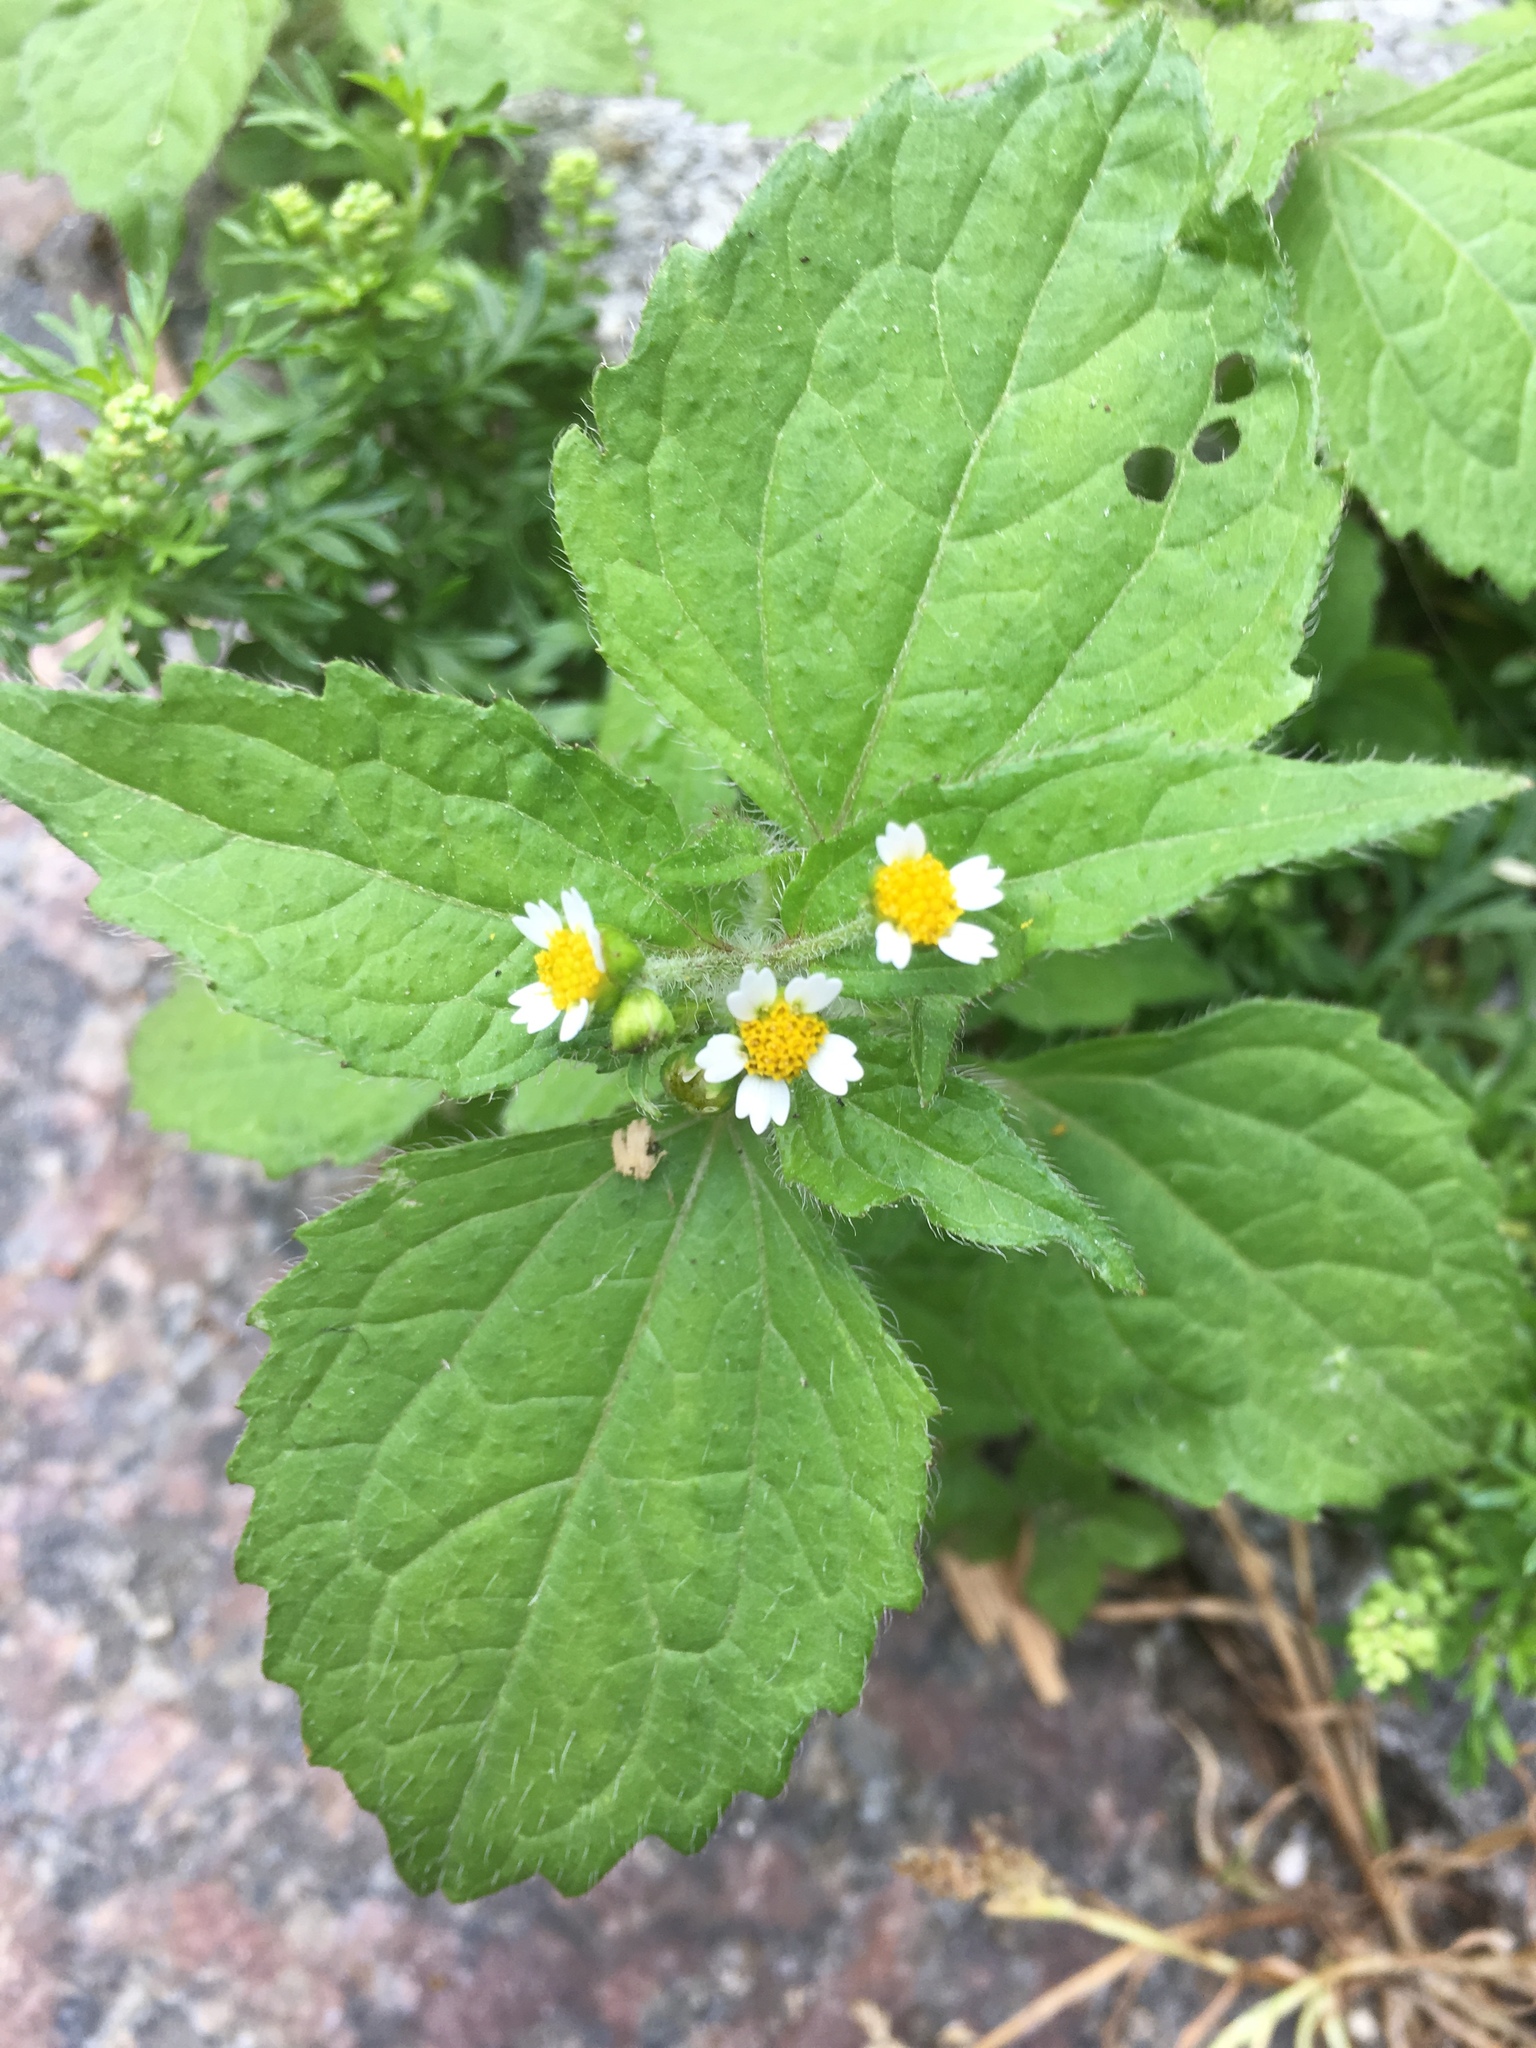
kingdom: Plantae
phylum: Tracheophyta
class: Magnoliopsida
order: Asterales
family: Asteraceae
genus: Galinsoga
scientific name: Galinsoga quadriradiata
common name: Shaggy soldier
